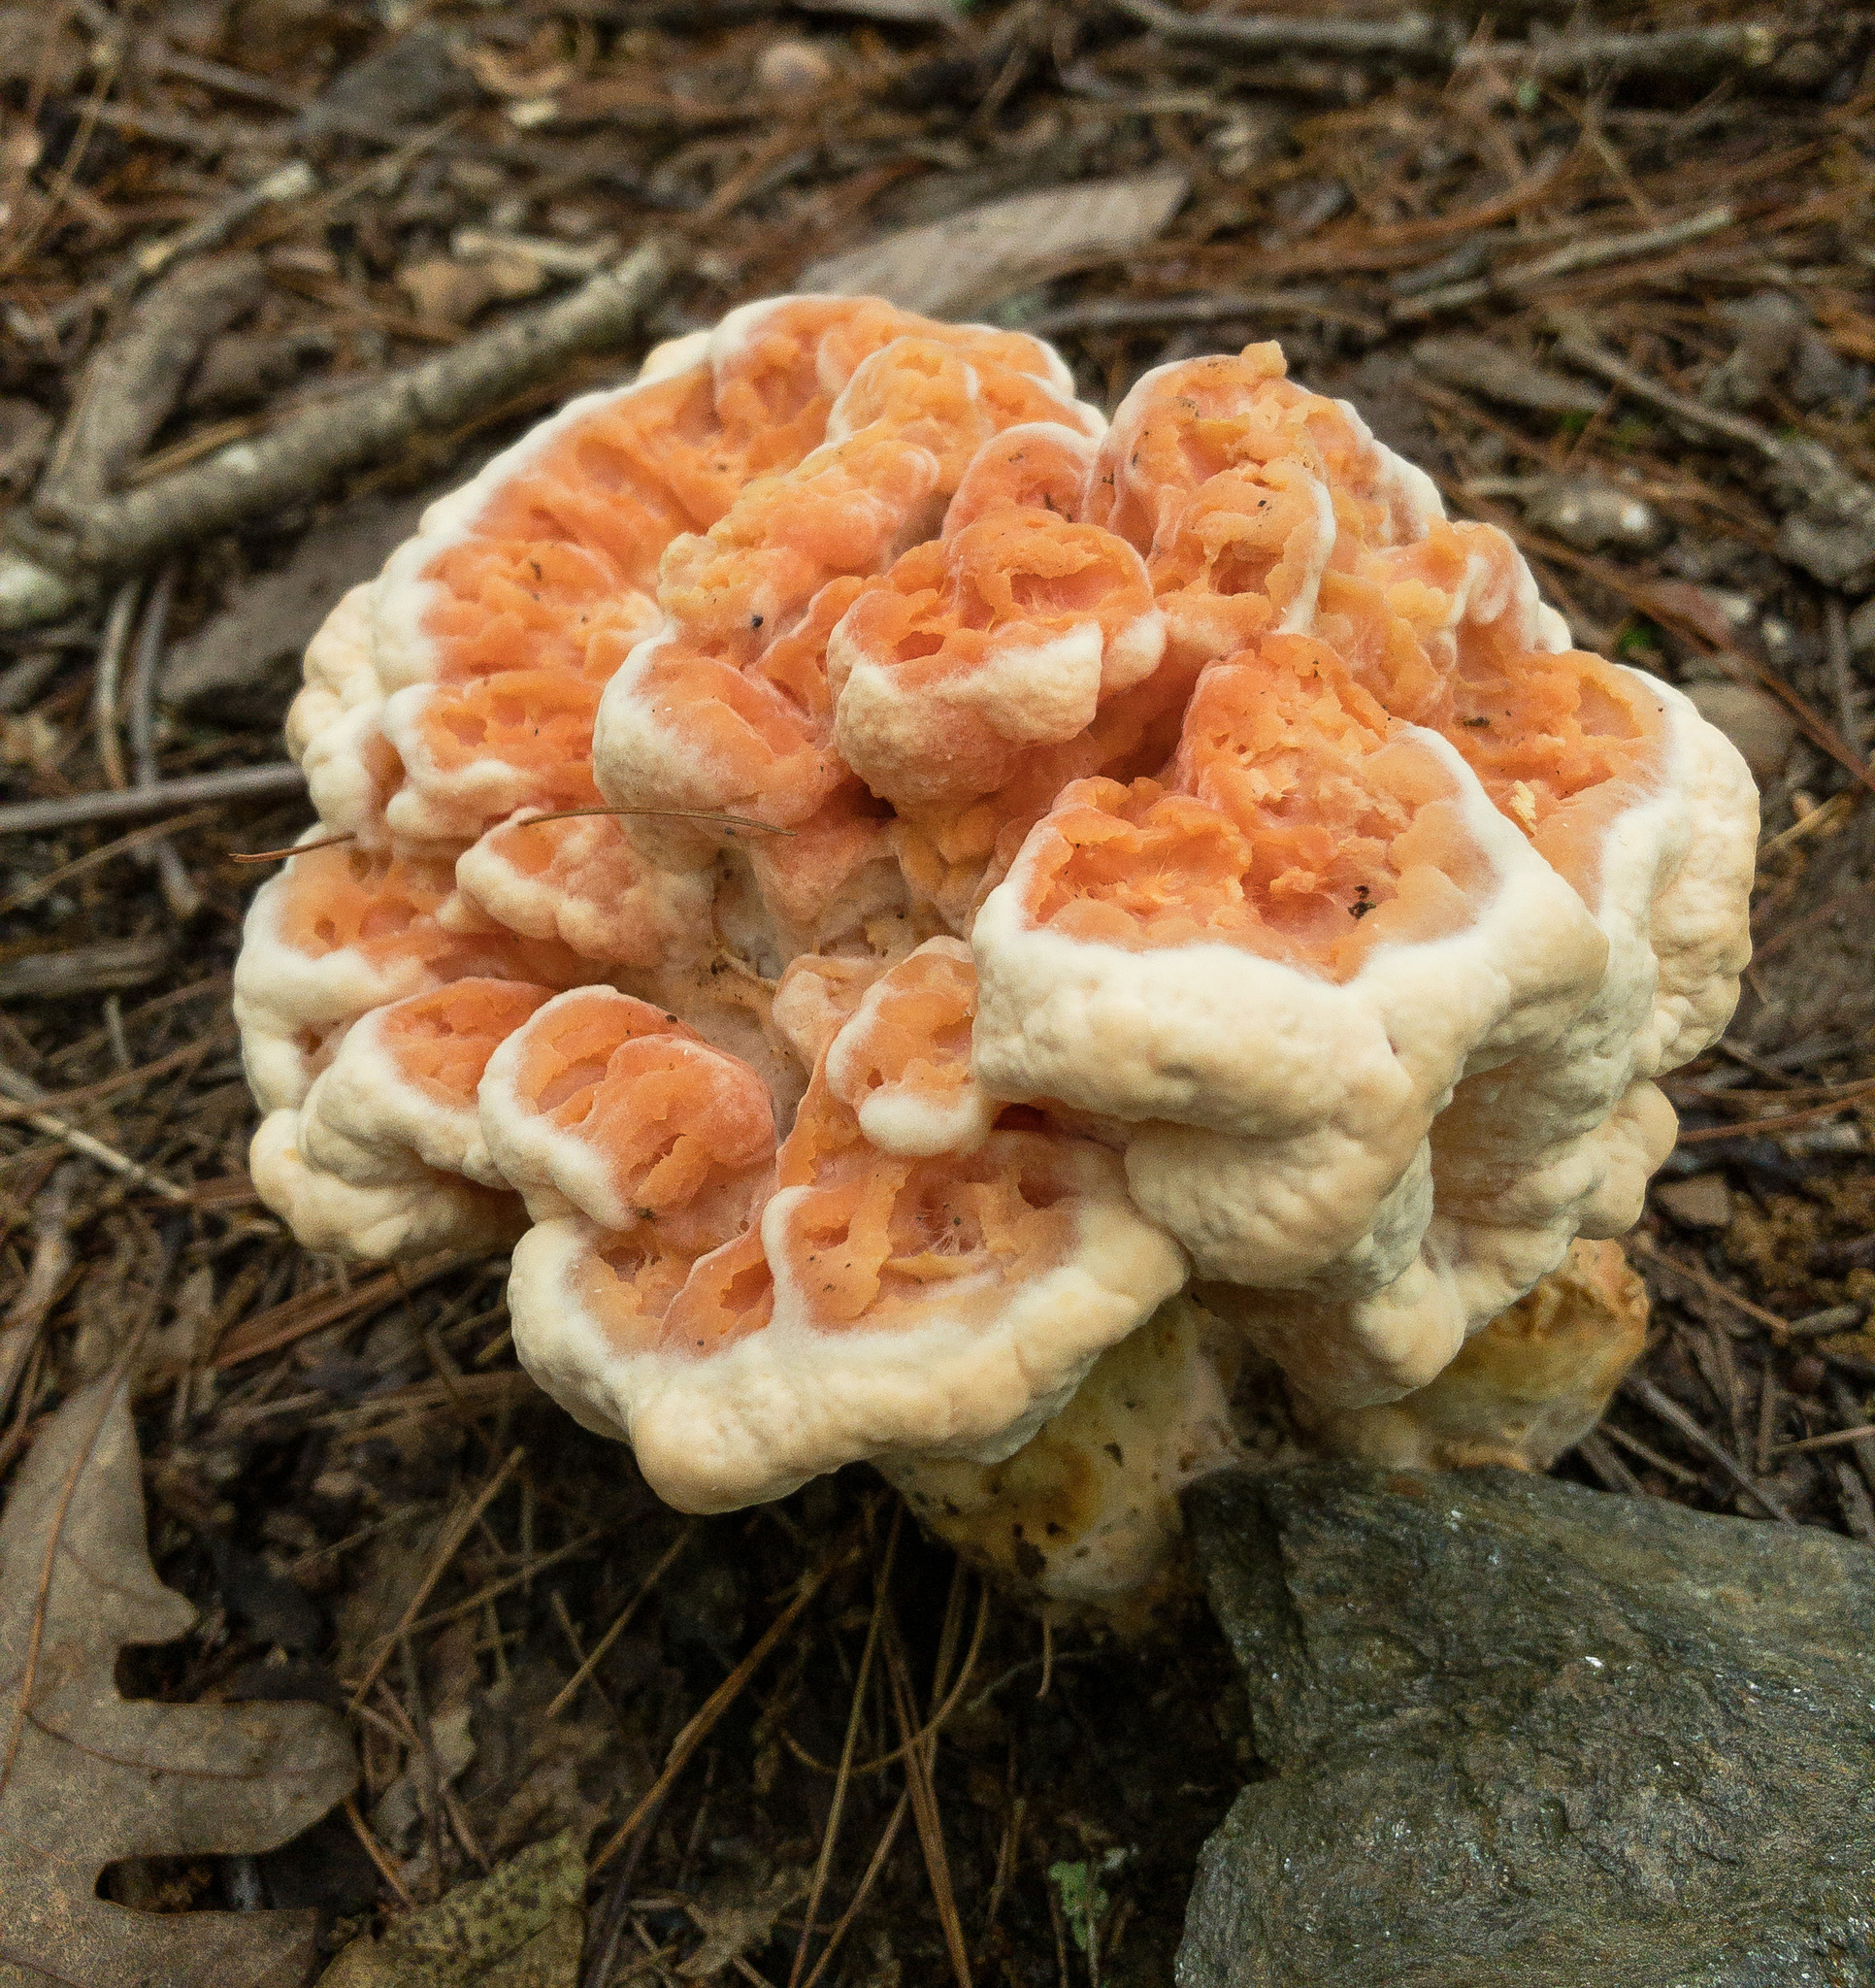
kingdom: Fungi
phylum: Basidiomycota
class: Agaricomycetes
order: Polyporales
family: Laetiporaceae
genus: Laetiporus
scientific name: Laetiporus sulphureus
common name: Chicken of the woods
